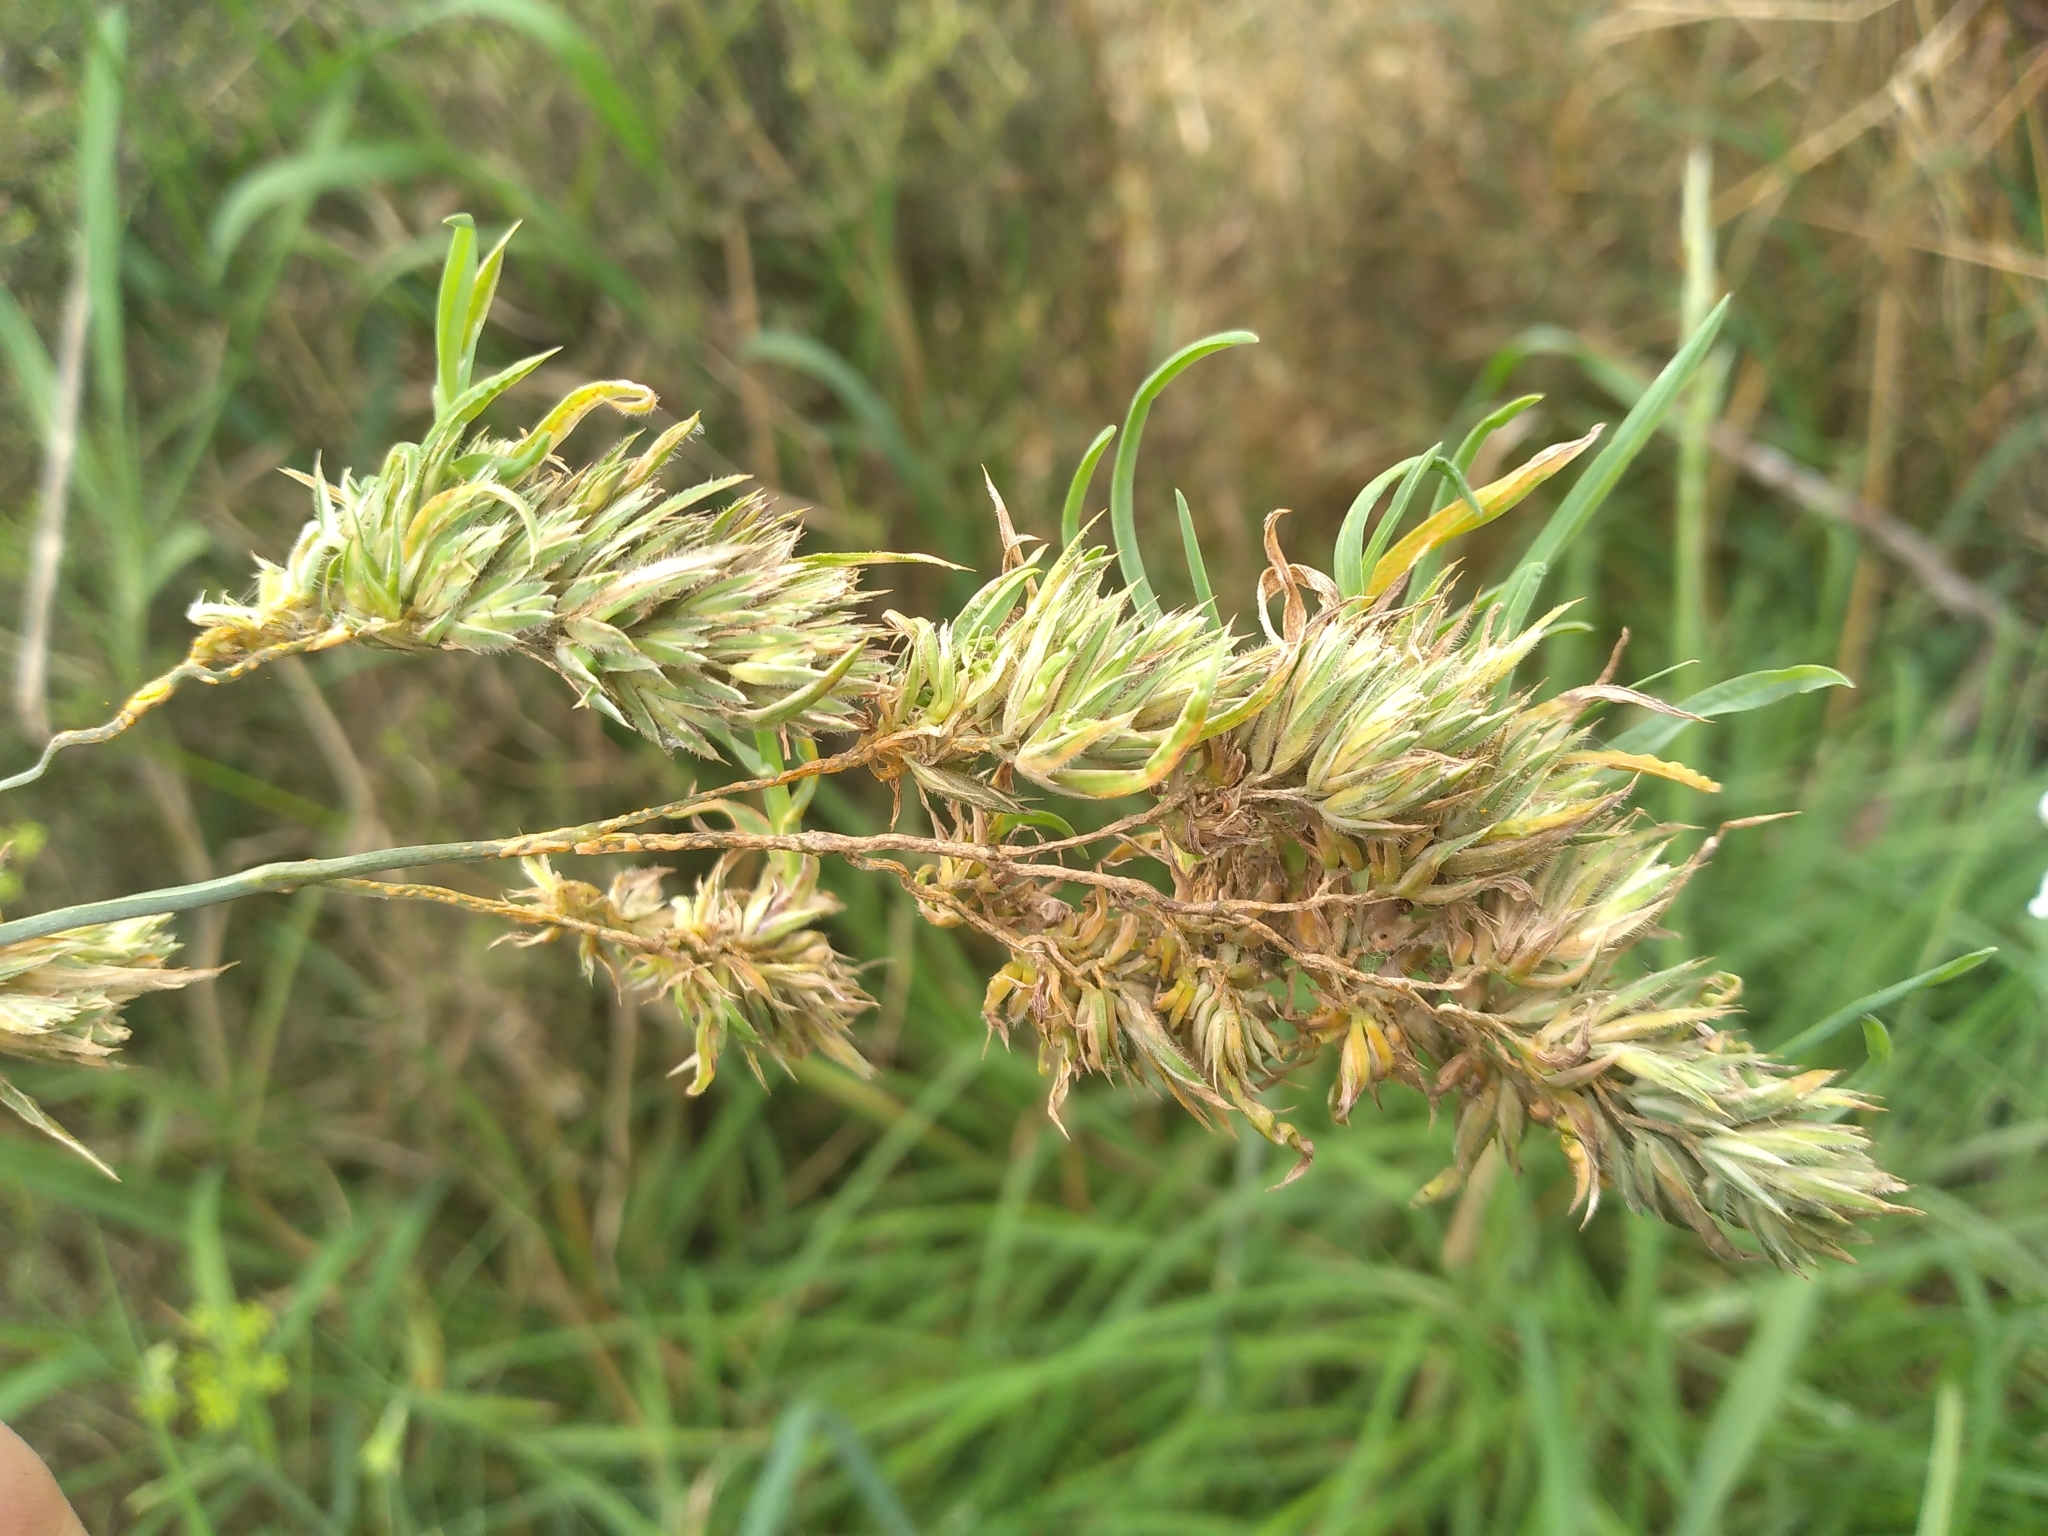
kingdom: Plantae
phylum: Tracheophyta
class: Liliopsida
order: Poales
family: Poaceae
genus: Dactylis
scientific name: Dactylis glomerata
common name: Orchardgrass
